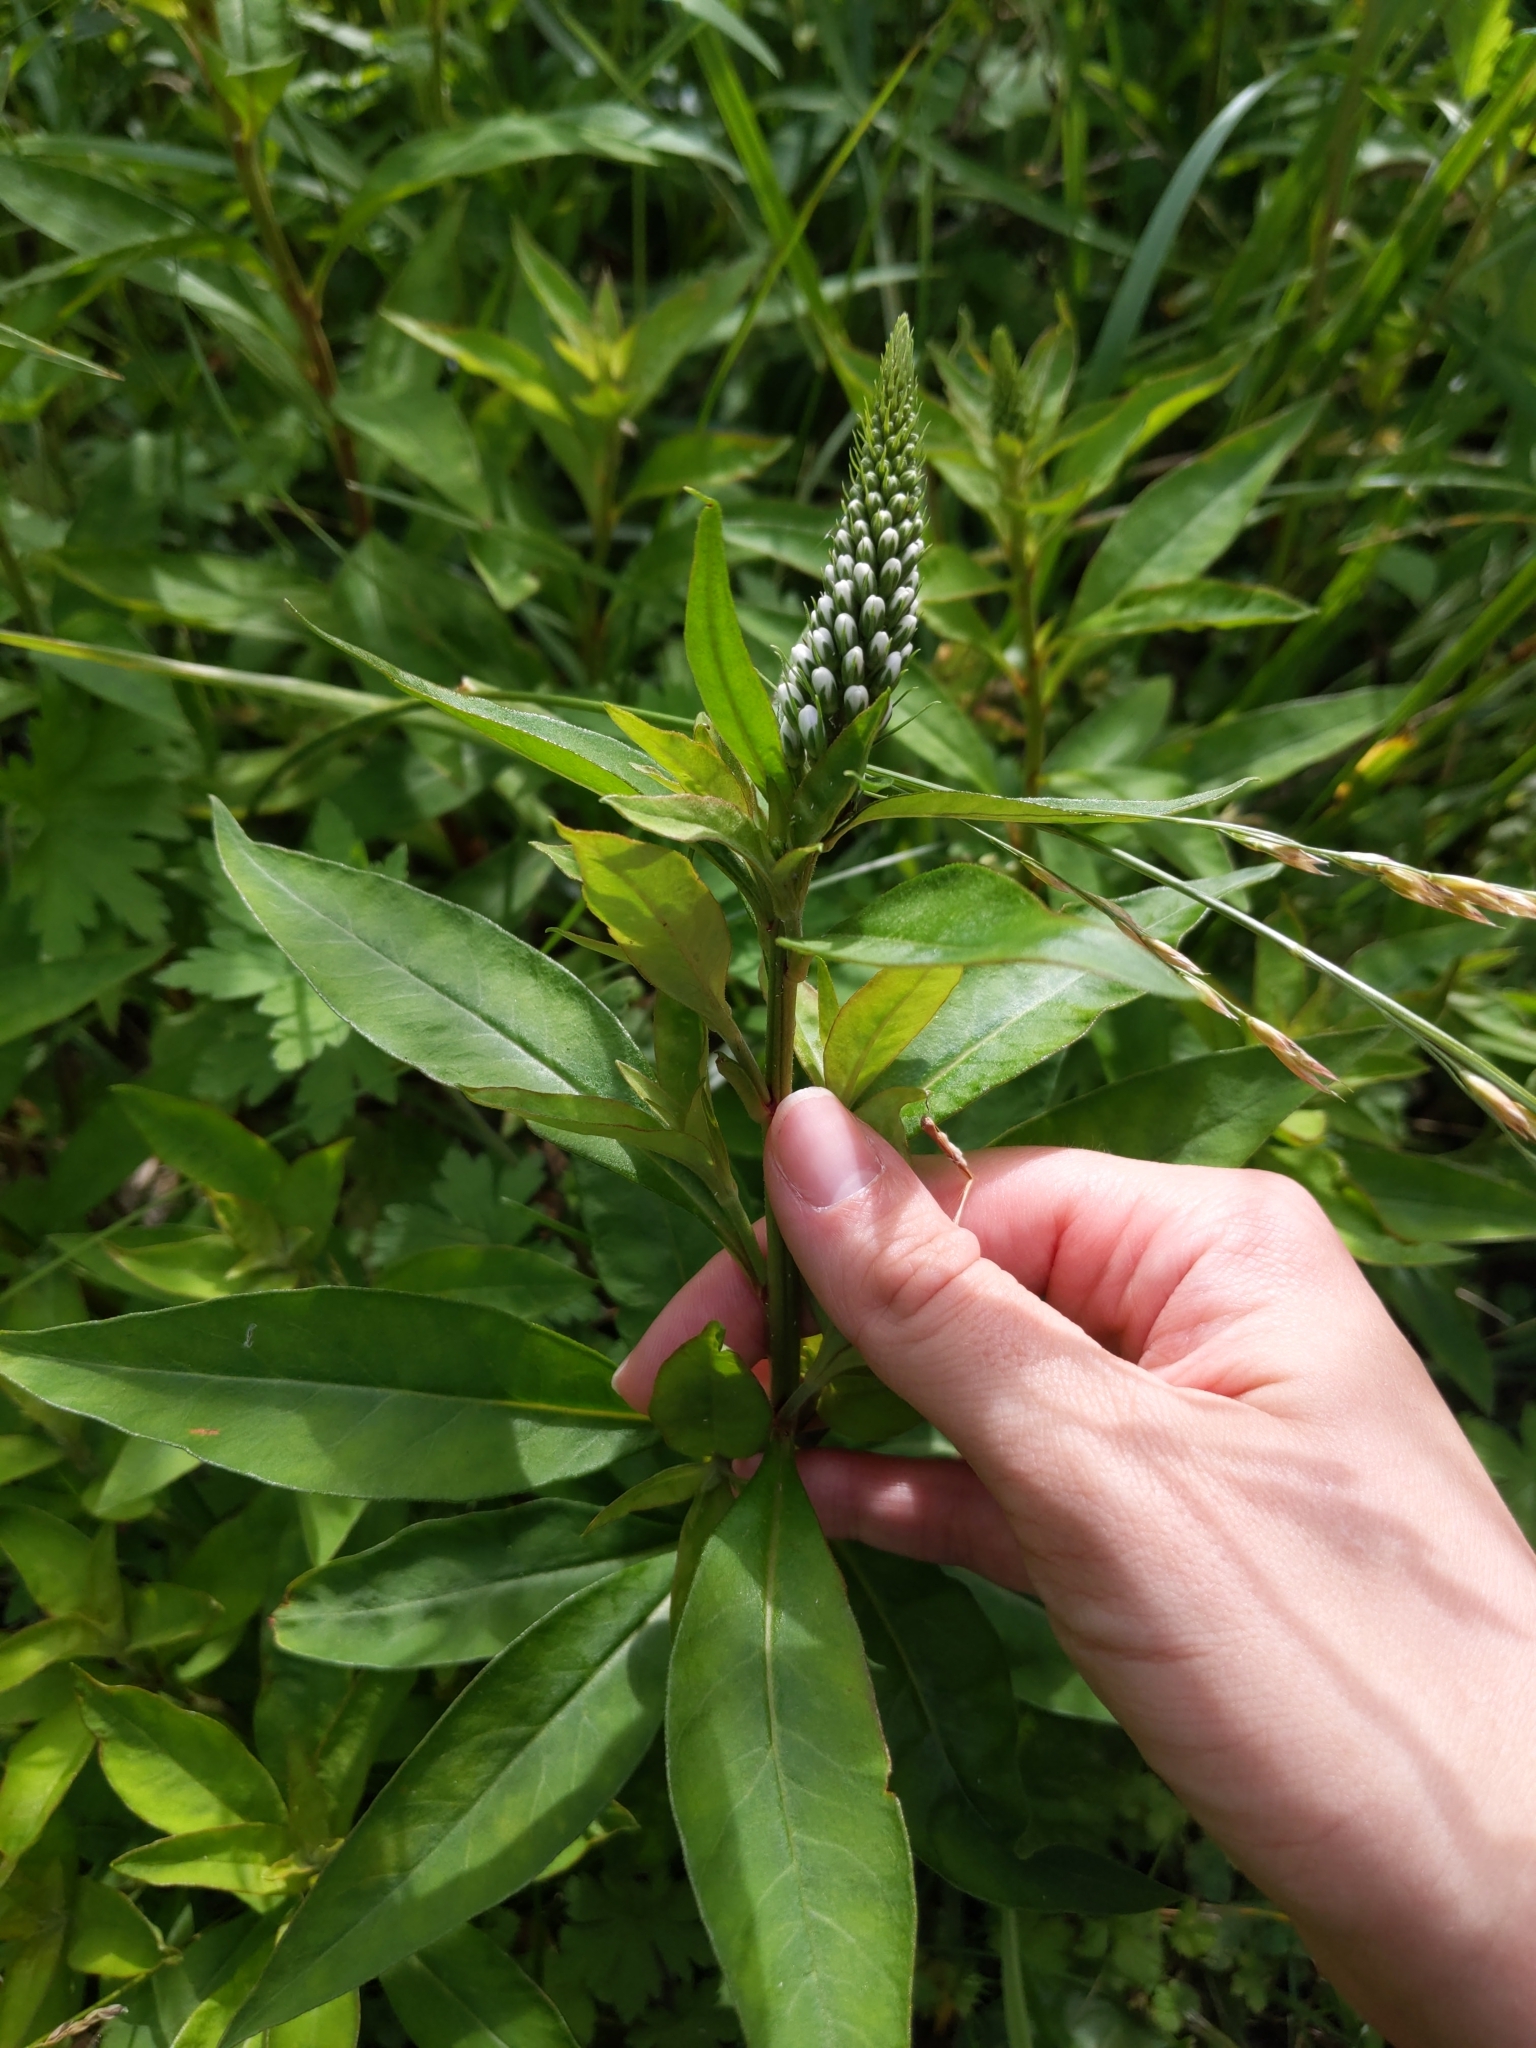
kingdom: Plantae
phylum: Tracheophyta
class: Magnoliopsida
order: Ericales
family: Primulaceae
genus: Lysimachia
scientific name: Lysimachia clethroides
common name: Gooseneck loosestrife
